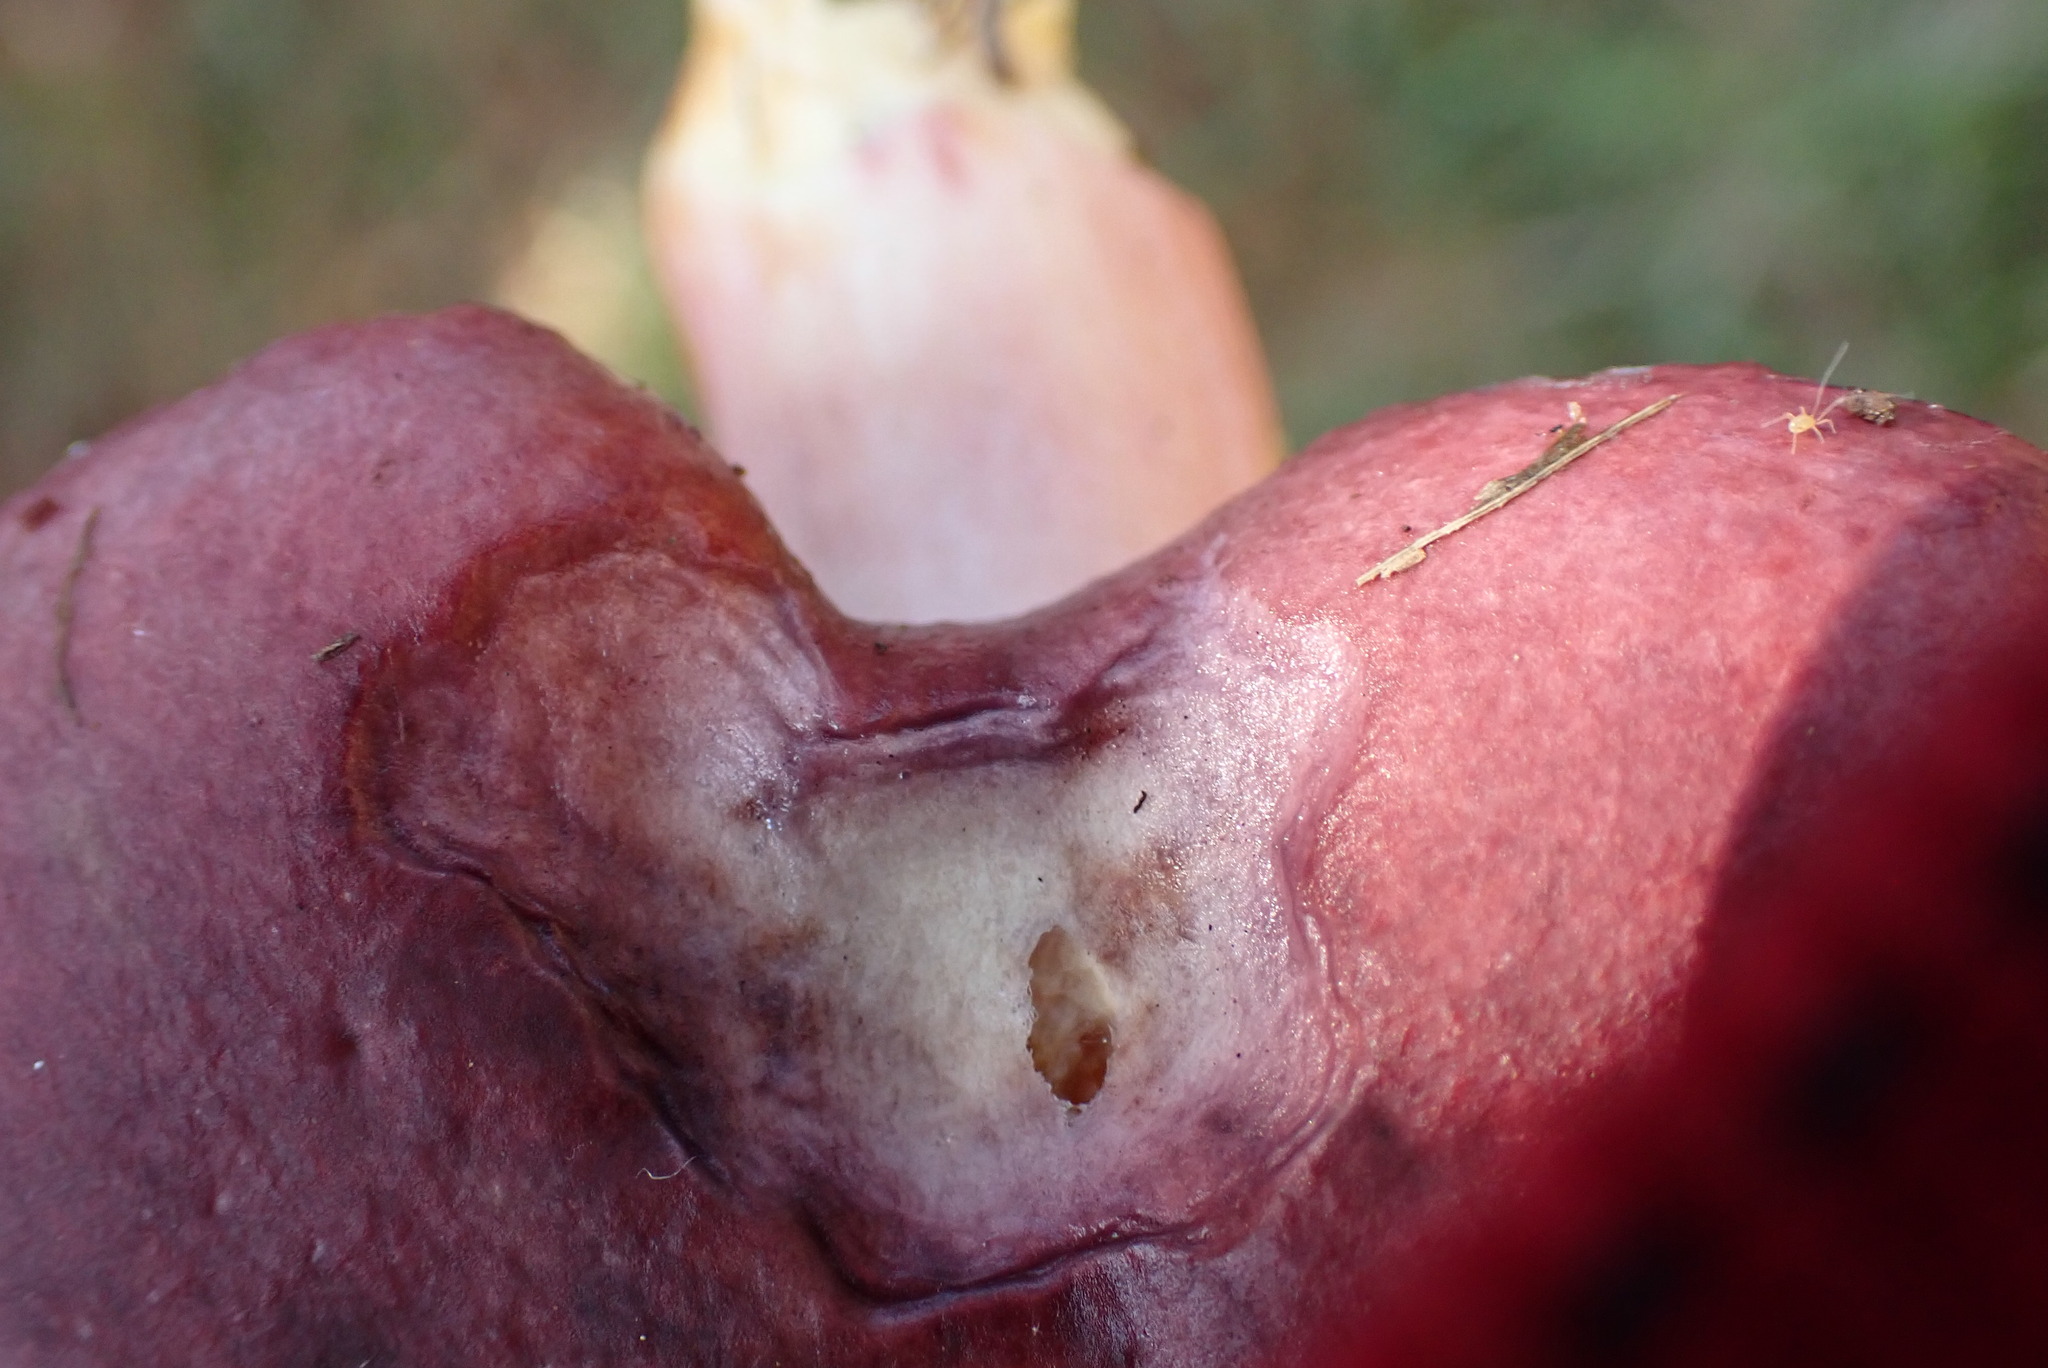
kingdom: Fungi
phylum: Basidiomycota
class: Agaricomycetes
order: Russulales
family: Russulaceae
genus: Russula
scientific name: Russula xerampelina
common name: Crab brittlegill
